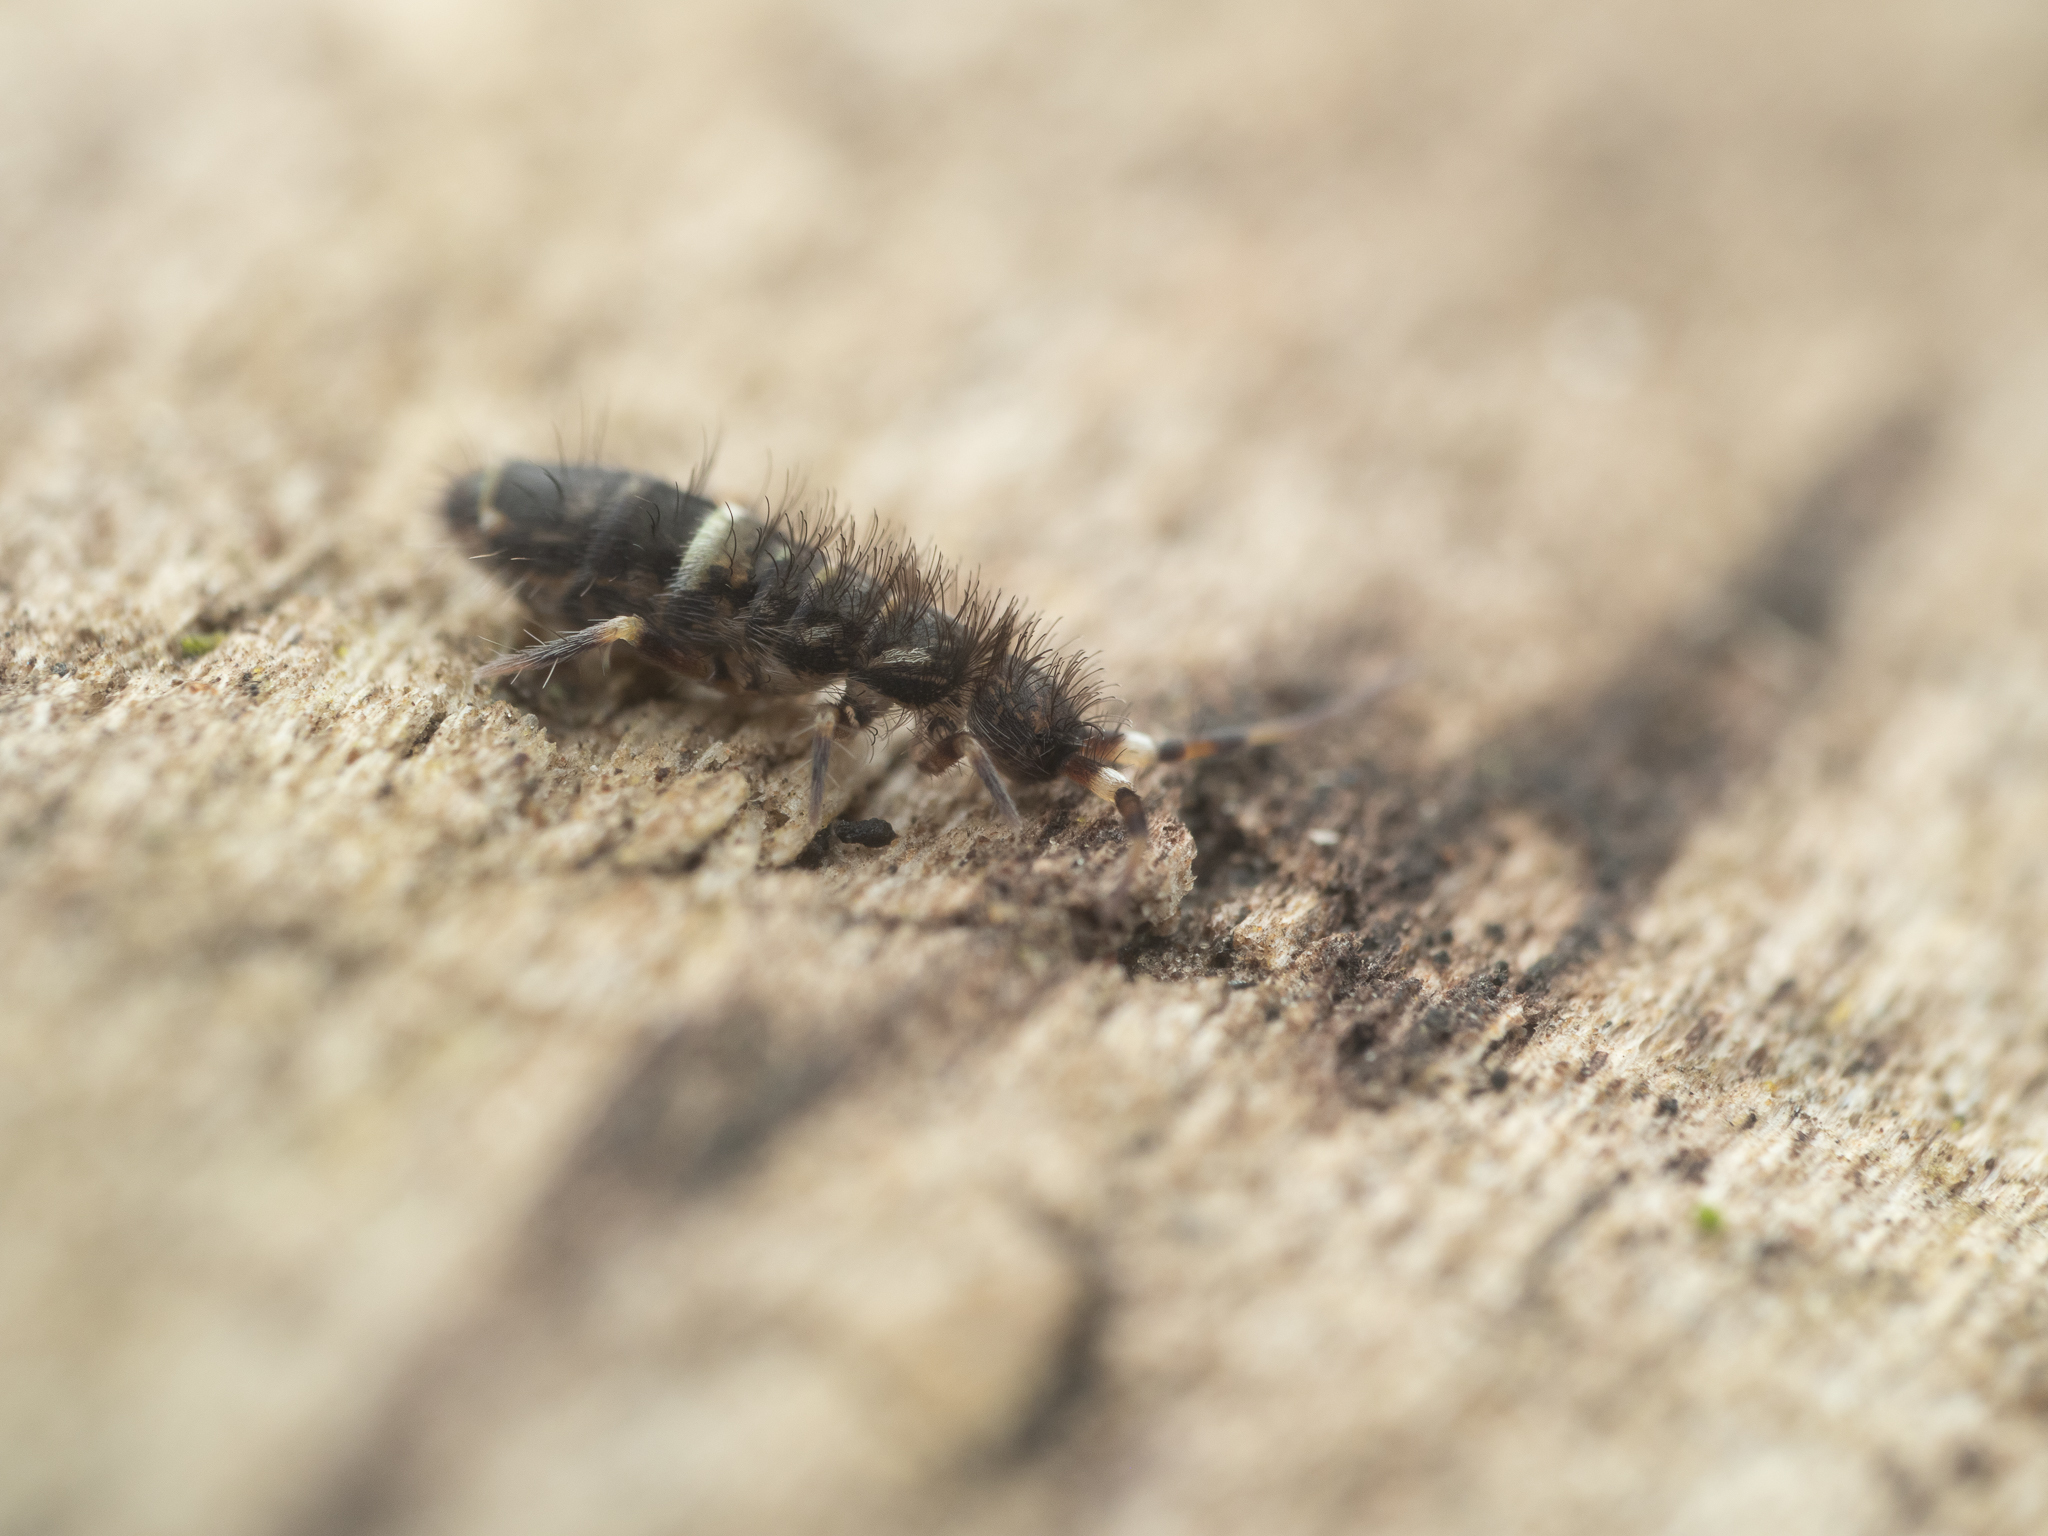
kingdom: Animalia
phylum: Arthropoda
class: Collembola
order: Entomobryomorpha
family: Orchesellidae
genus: Orchesella
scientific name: Orchesella cincta
